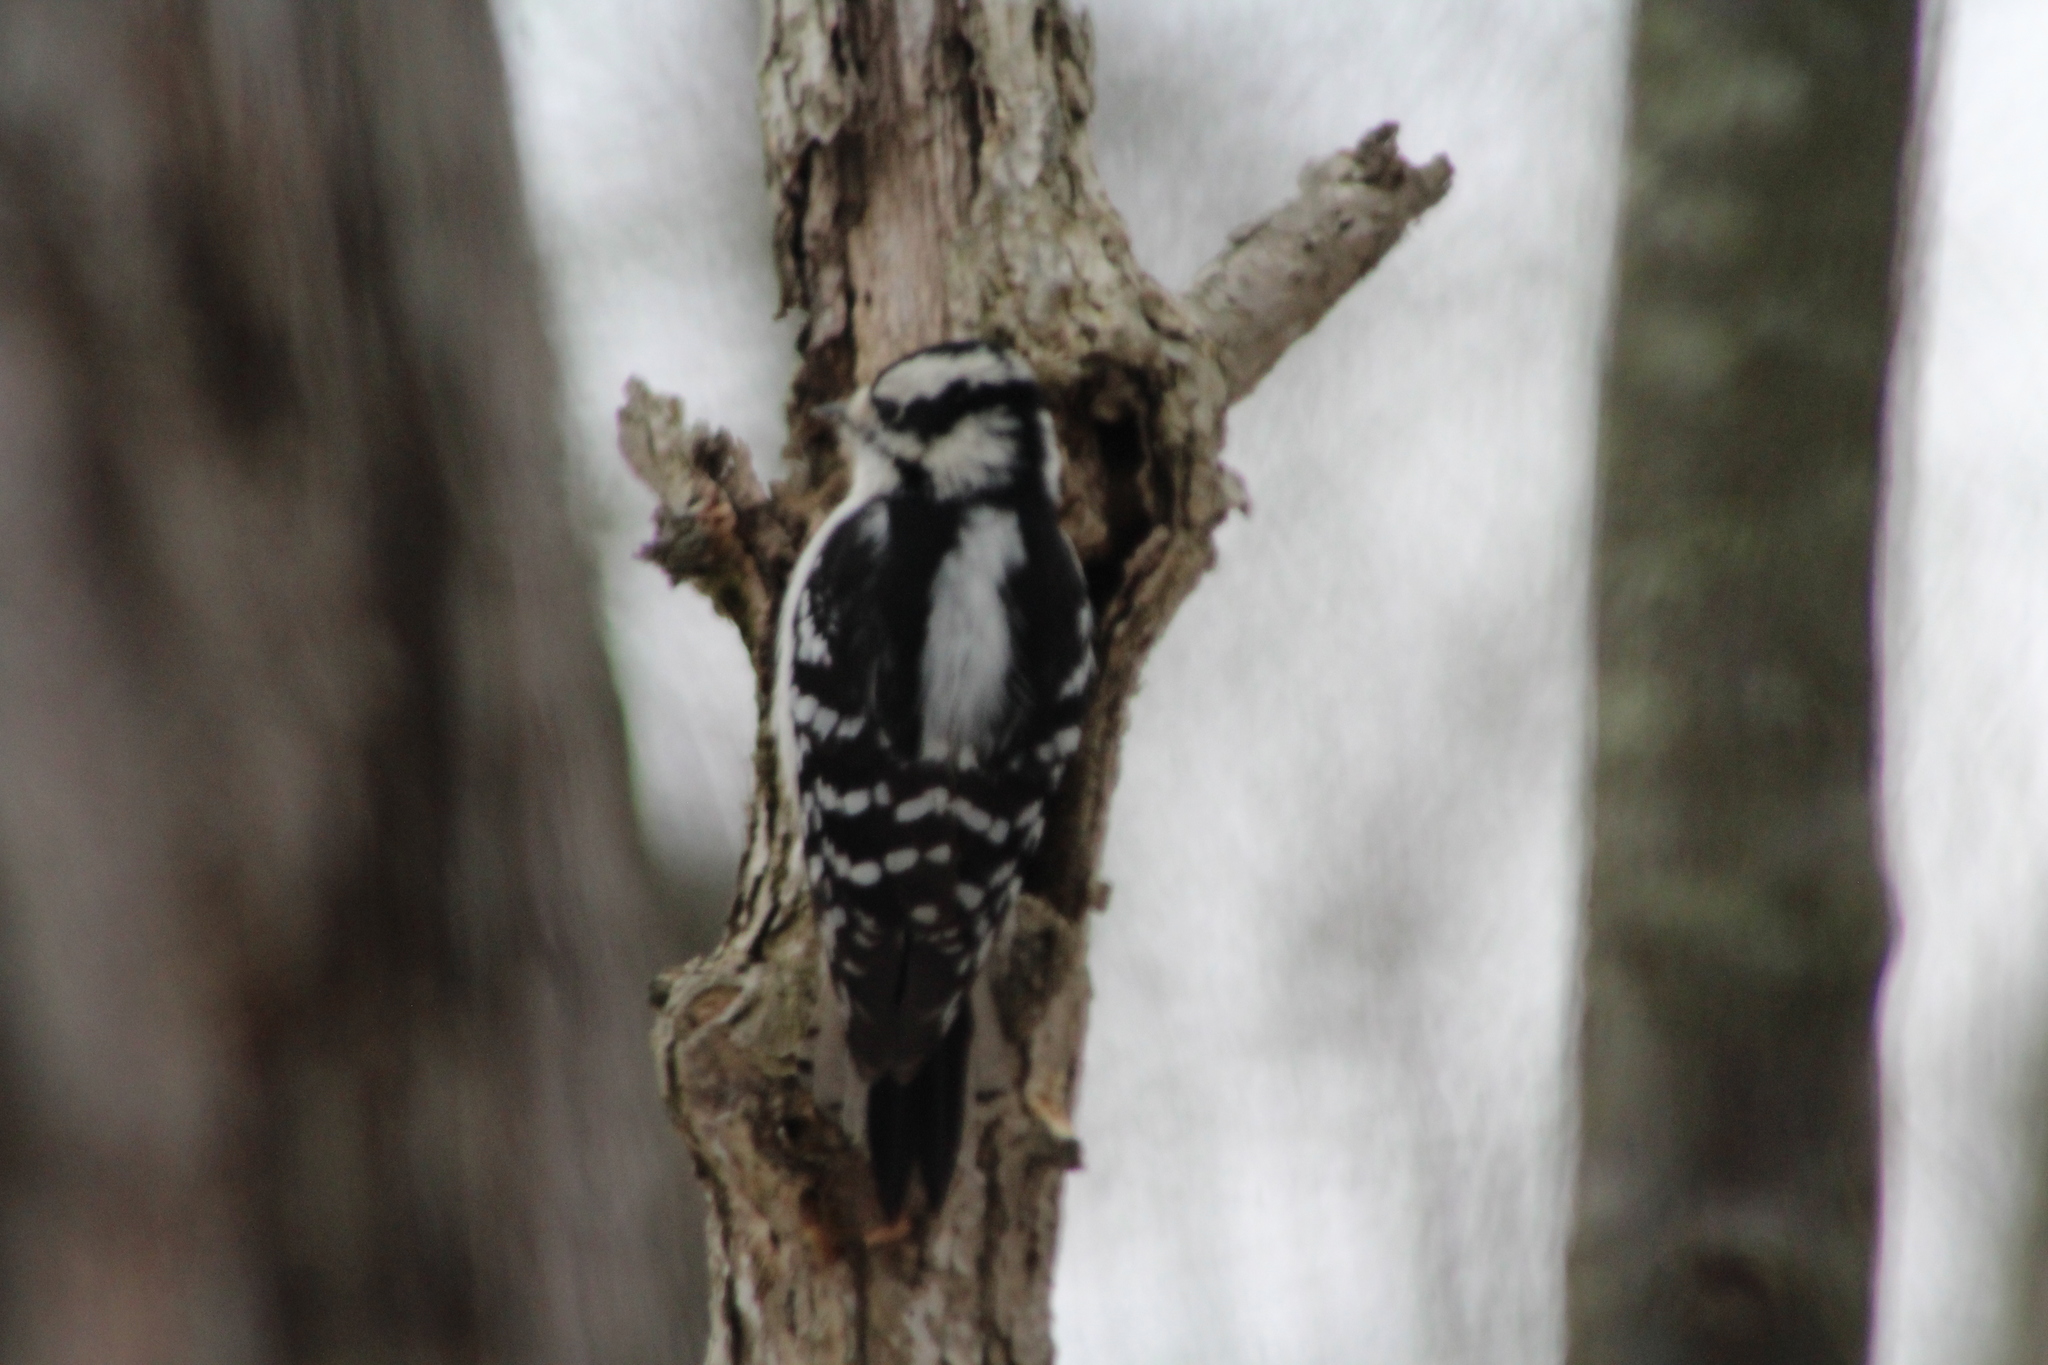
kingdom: Animalia
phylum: Chordata
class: Aves
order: Piciformes
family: Picidae
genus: Dryobates
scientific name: Dryobates pubescens
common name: Downy woodpecker
